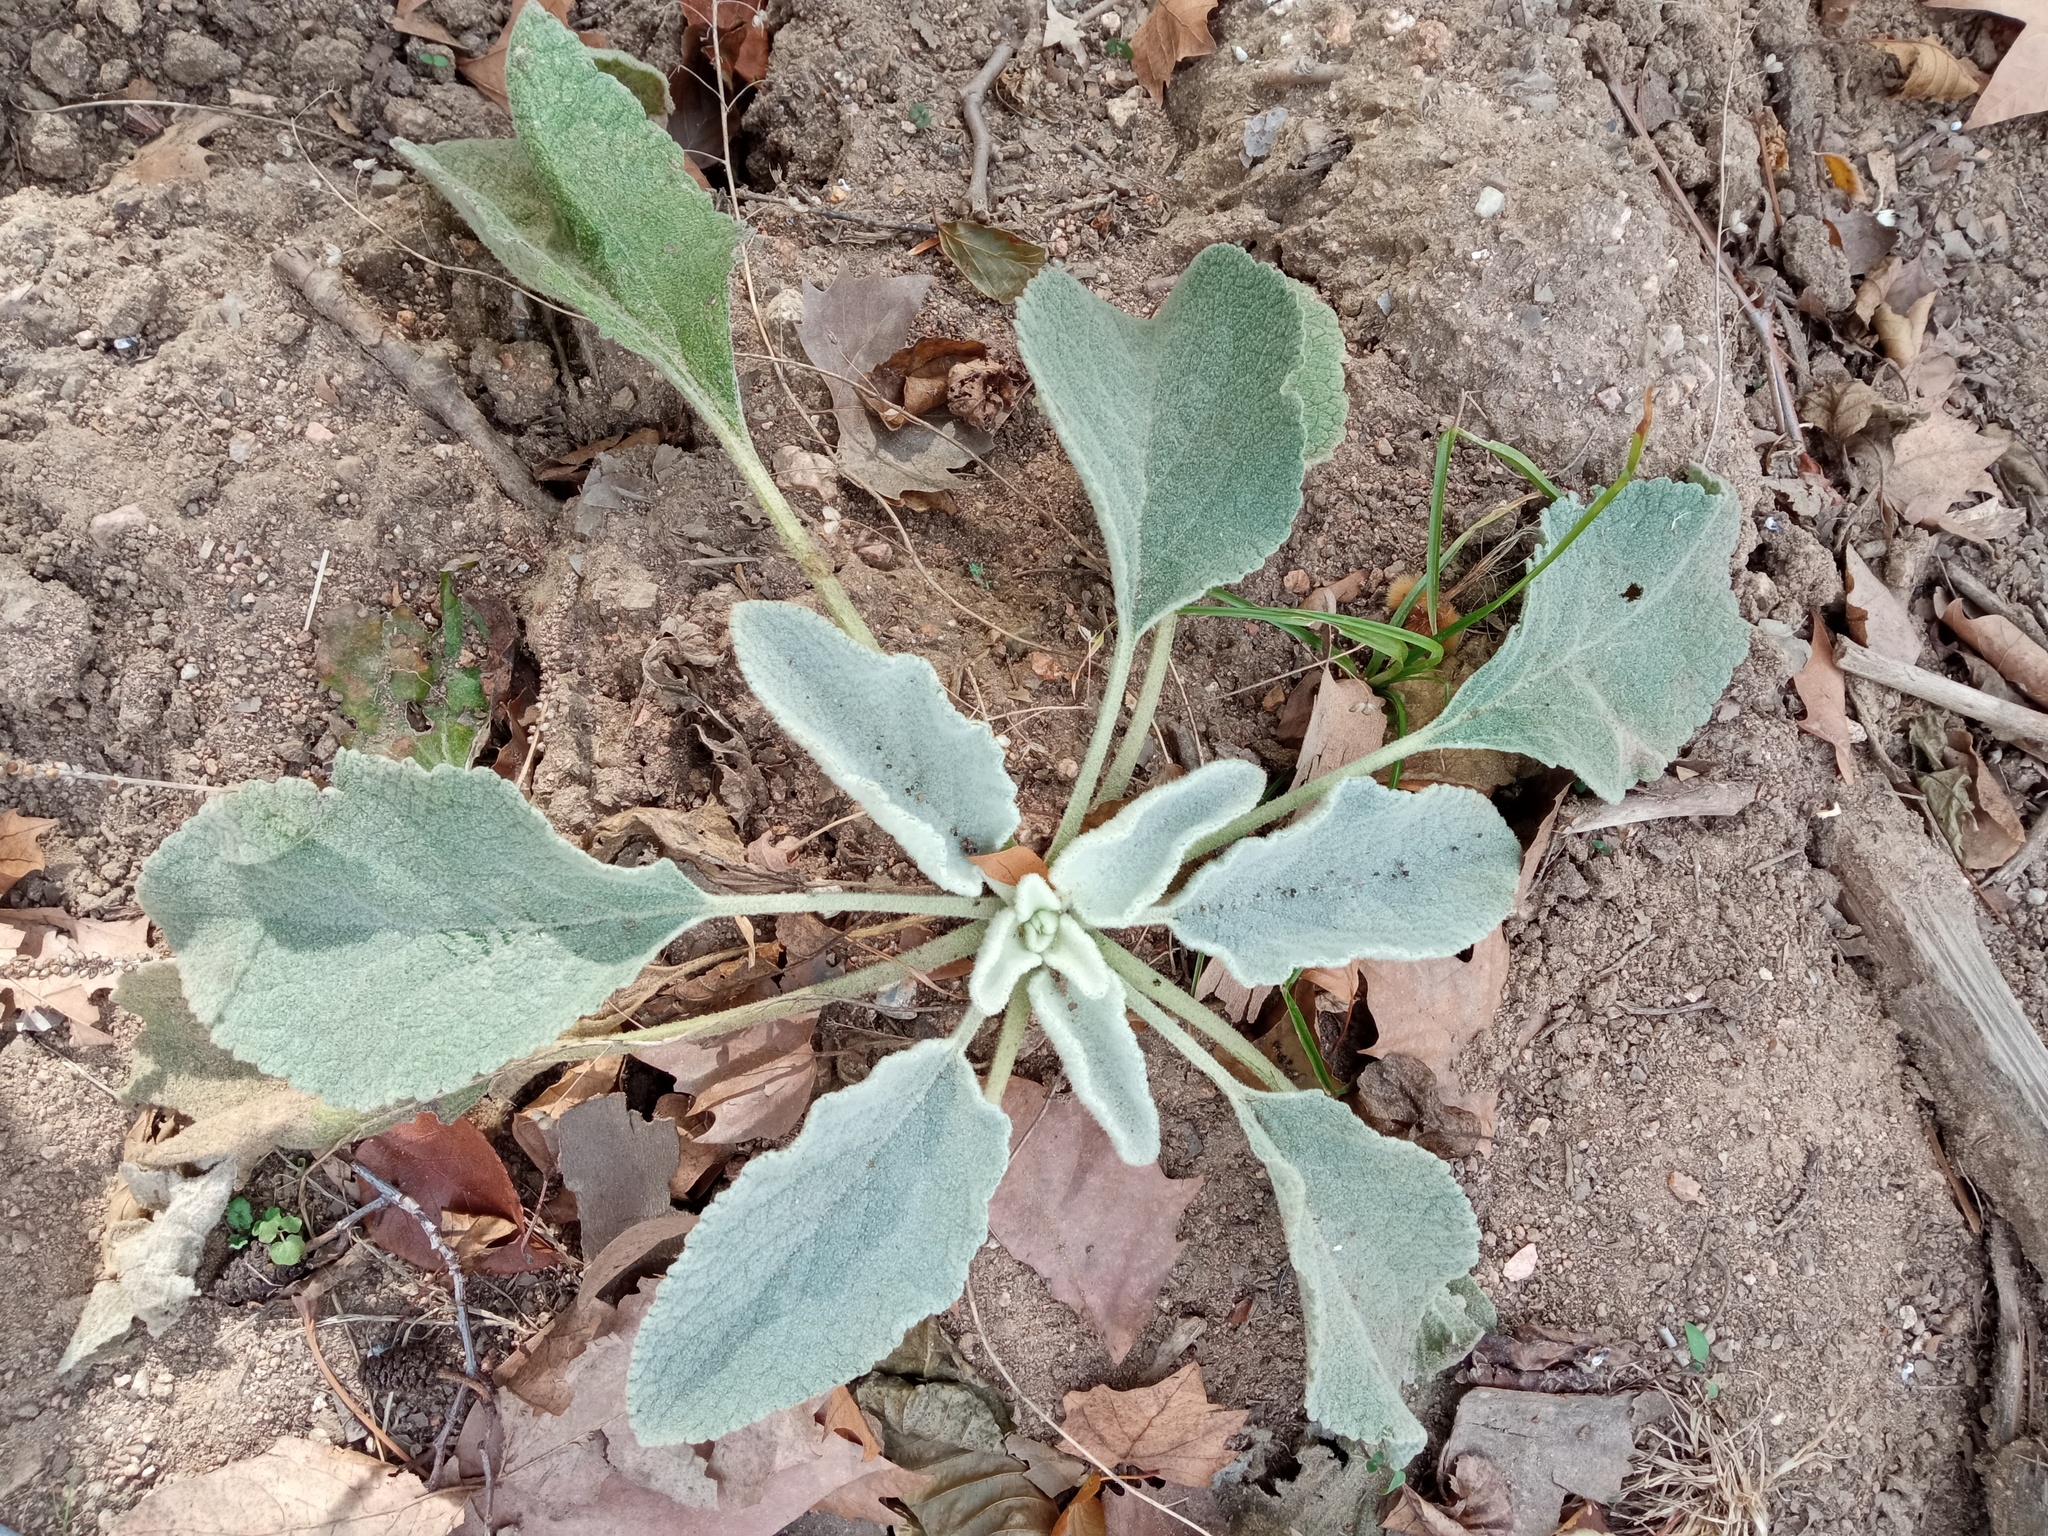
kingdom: Plantae
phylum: Tracheophyta
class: Magnoliopsida
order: Lamiales
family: Scrophulariaceae
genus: Verbascum
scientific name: Verbascum boerhavii
